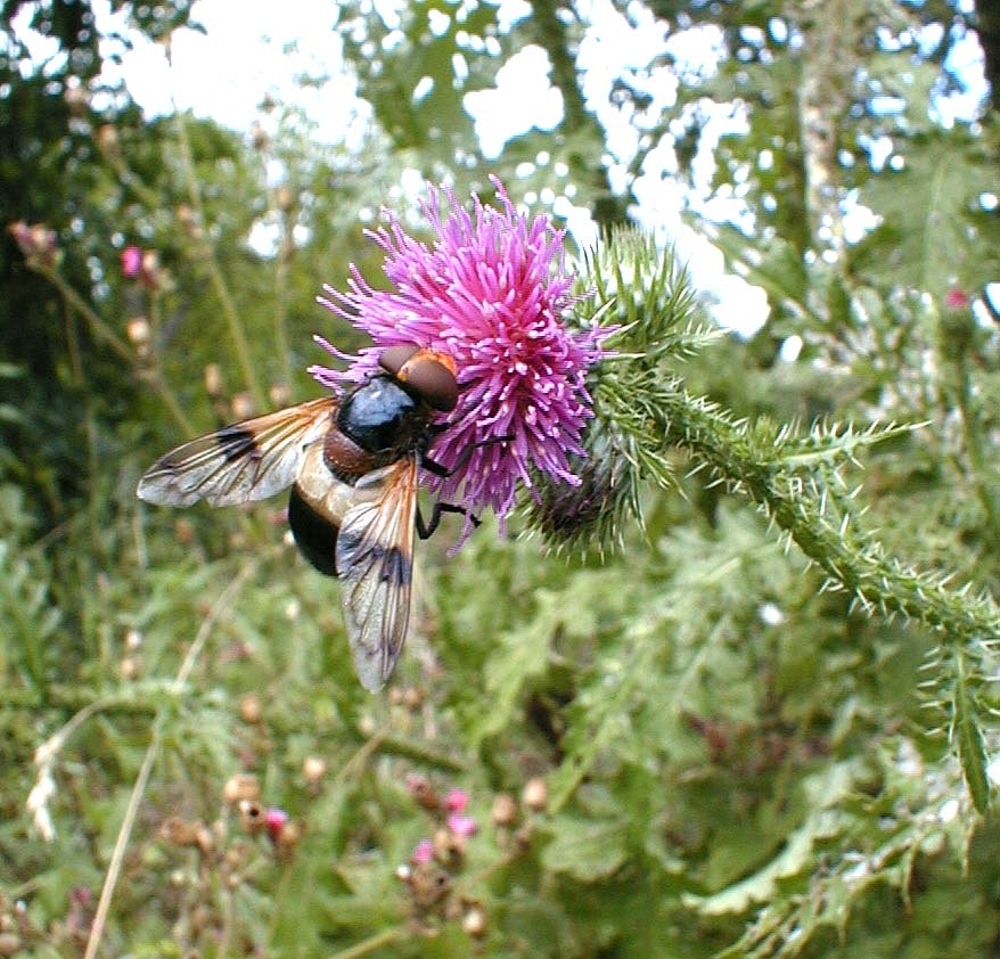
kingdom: Animalia
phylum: Arthropoda
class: Insecta
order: Diptera
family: Syrphidae
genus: Volucella
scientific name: Volucella pellucens
